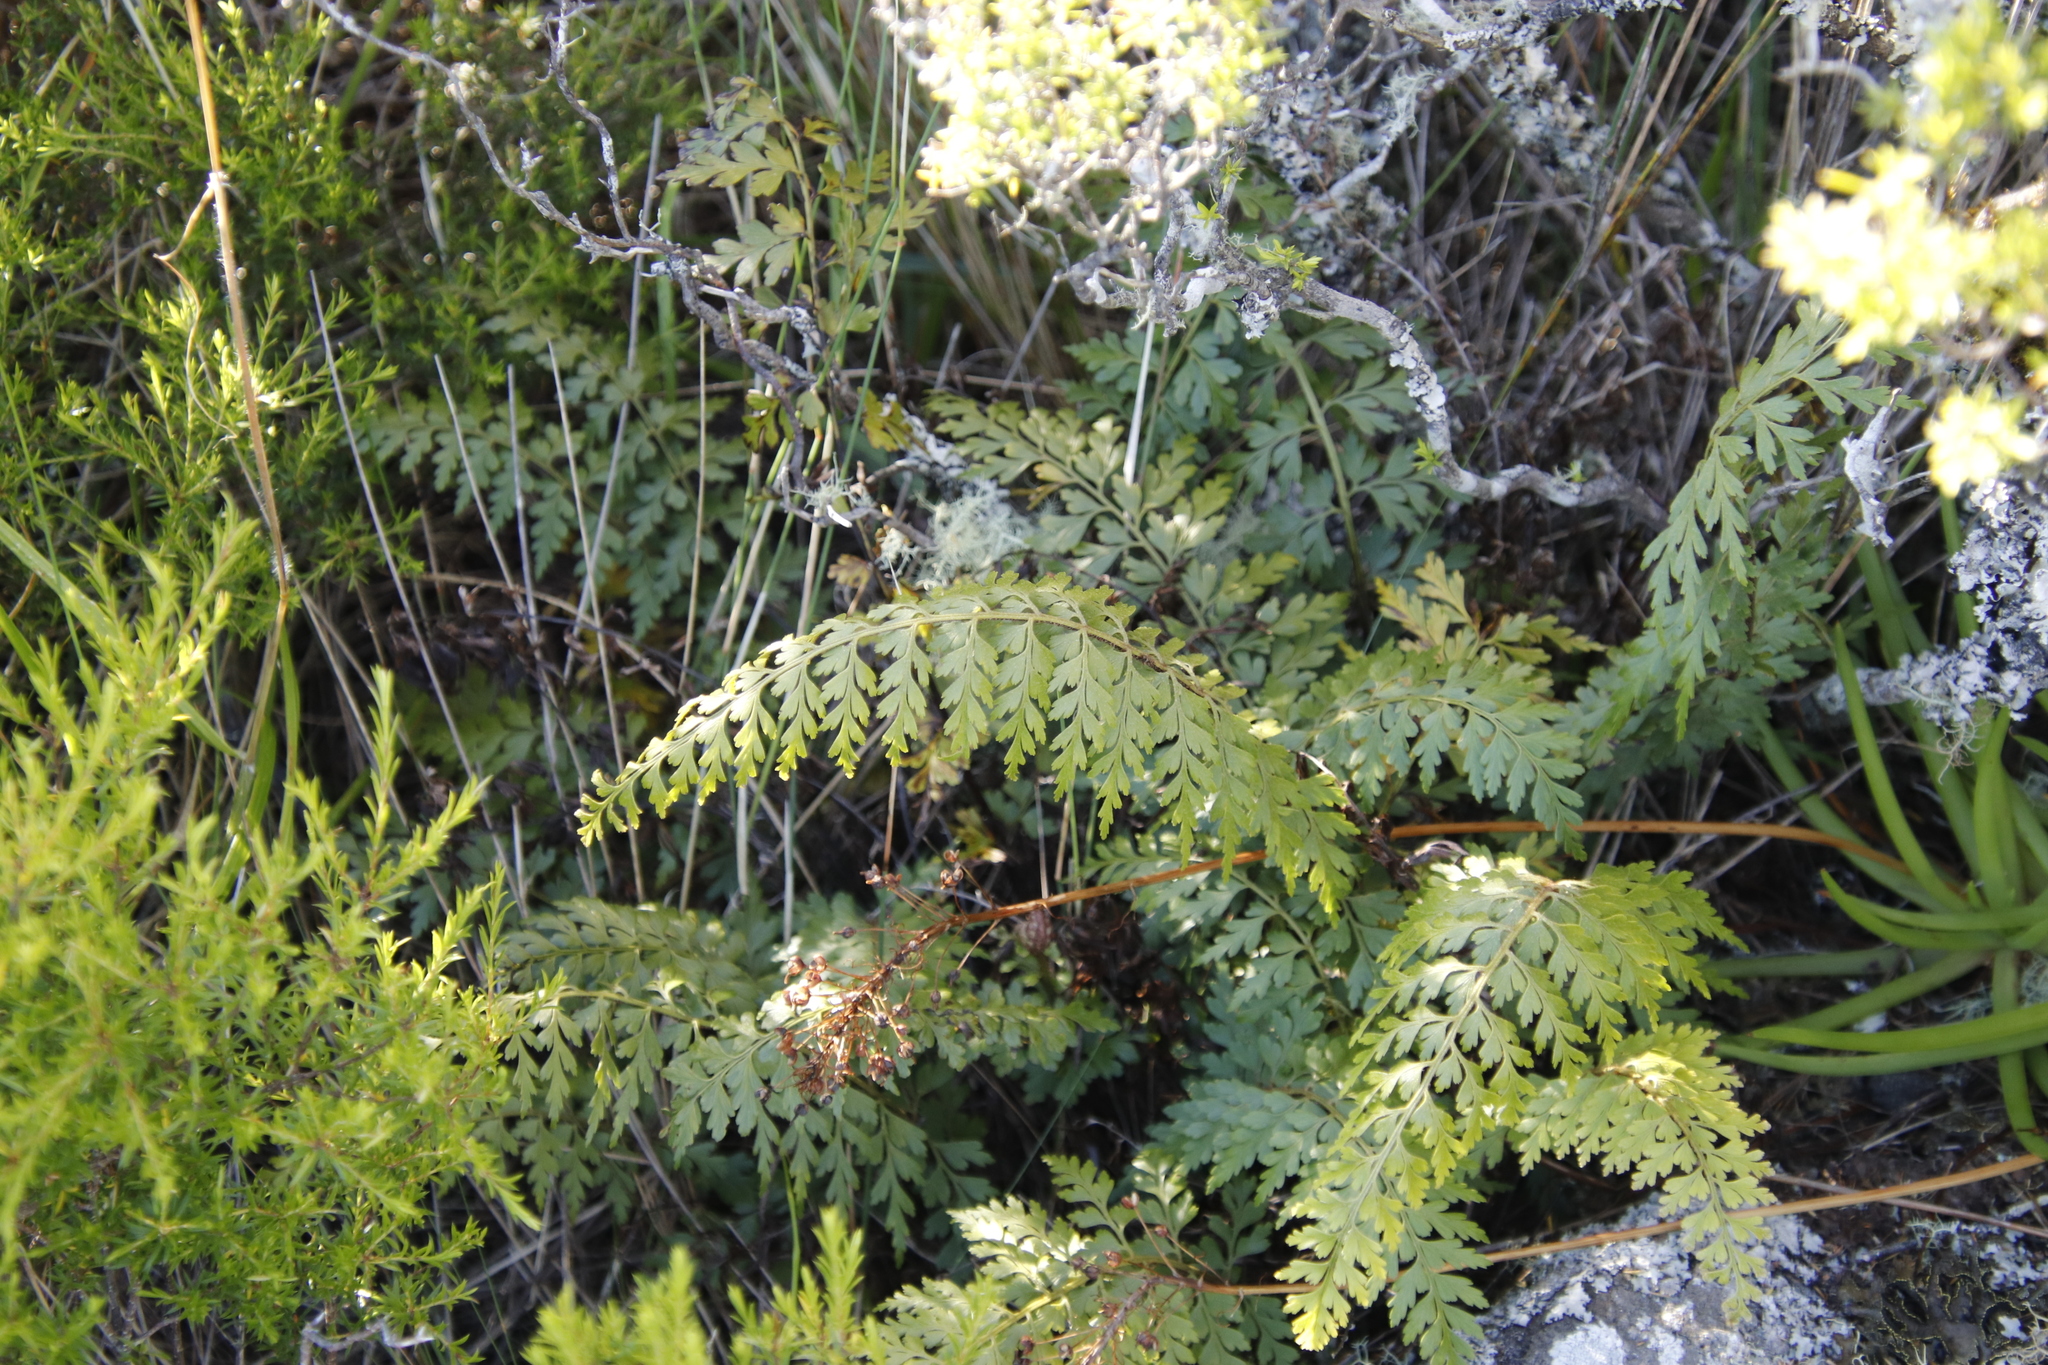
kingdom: Plantae
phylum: Tracheophyta
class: Polypodiopsida
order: Polypodiales
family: Aspleniaceae
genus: Asplenium
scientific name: Asplenium aethiopicum
